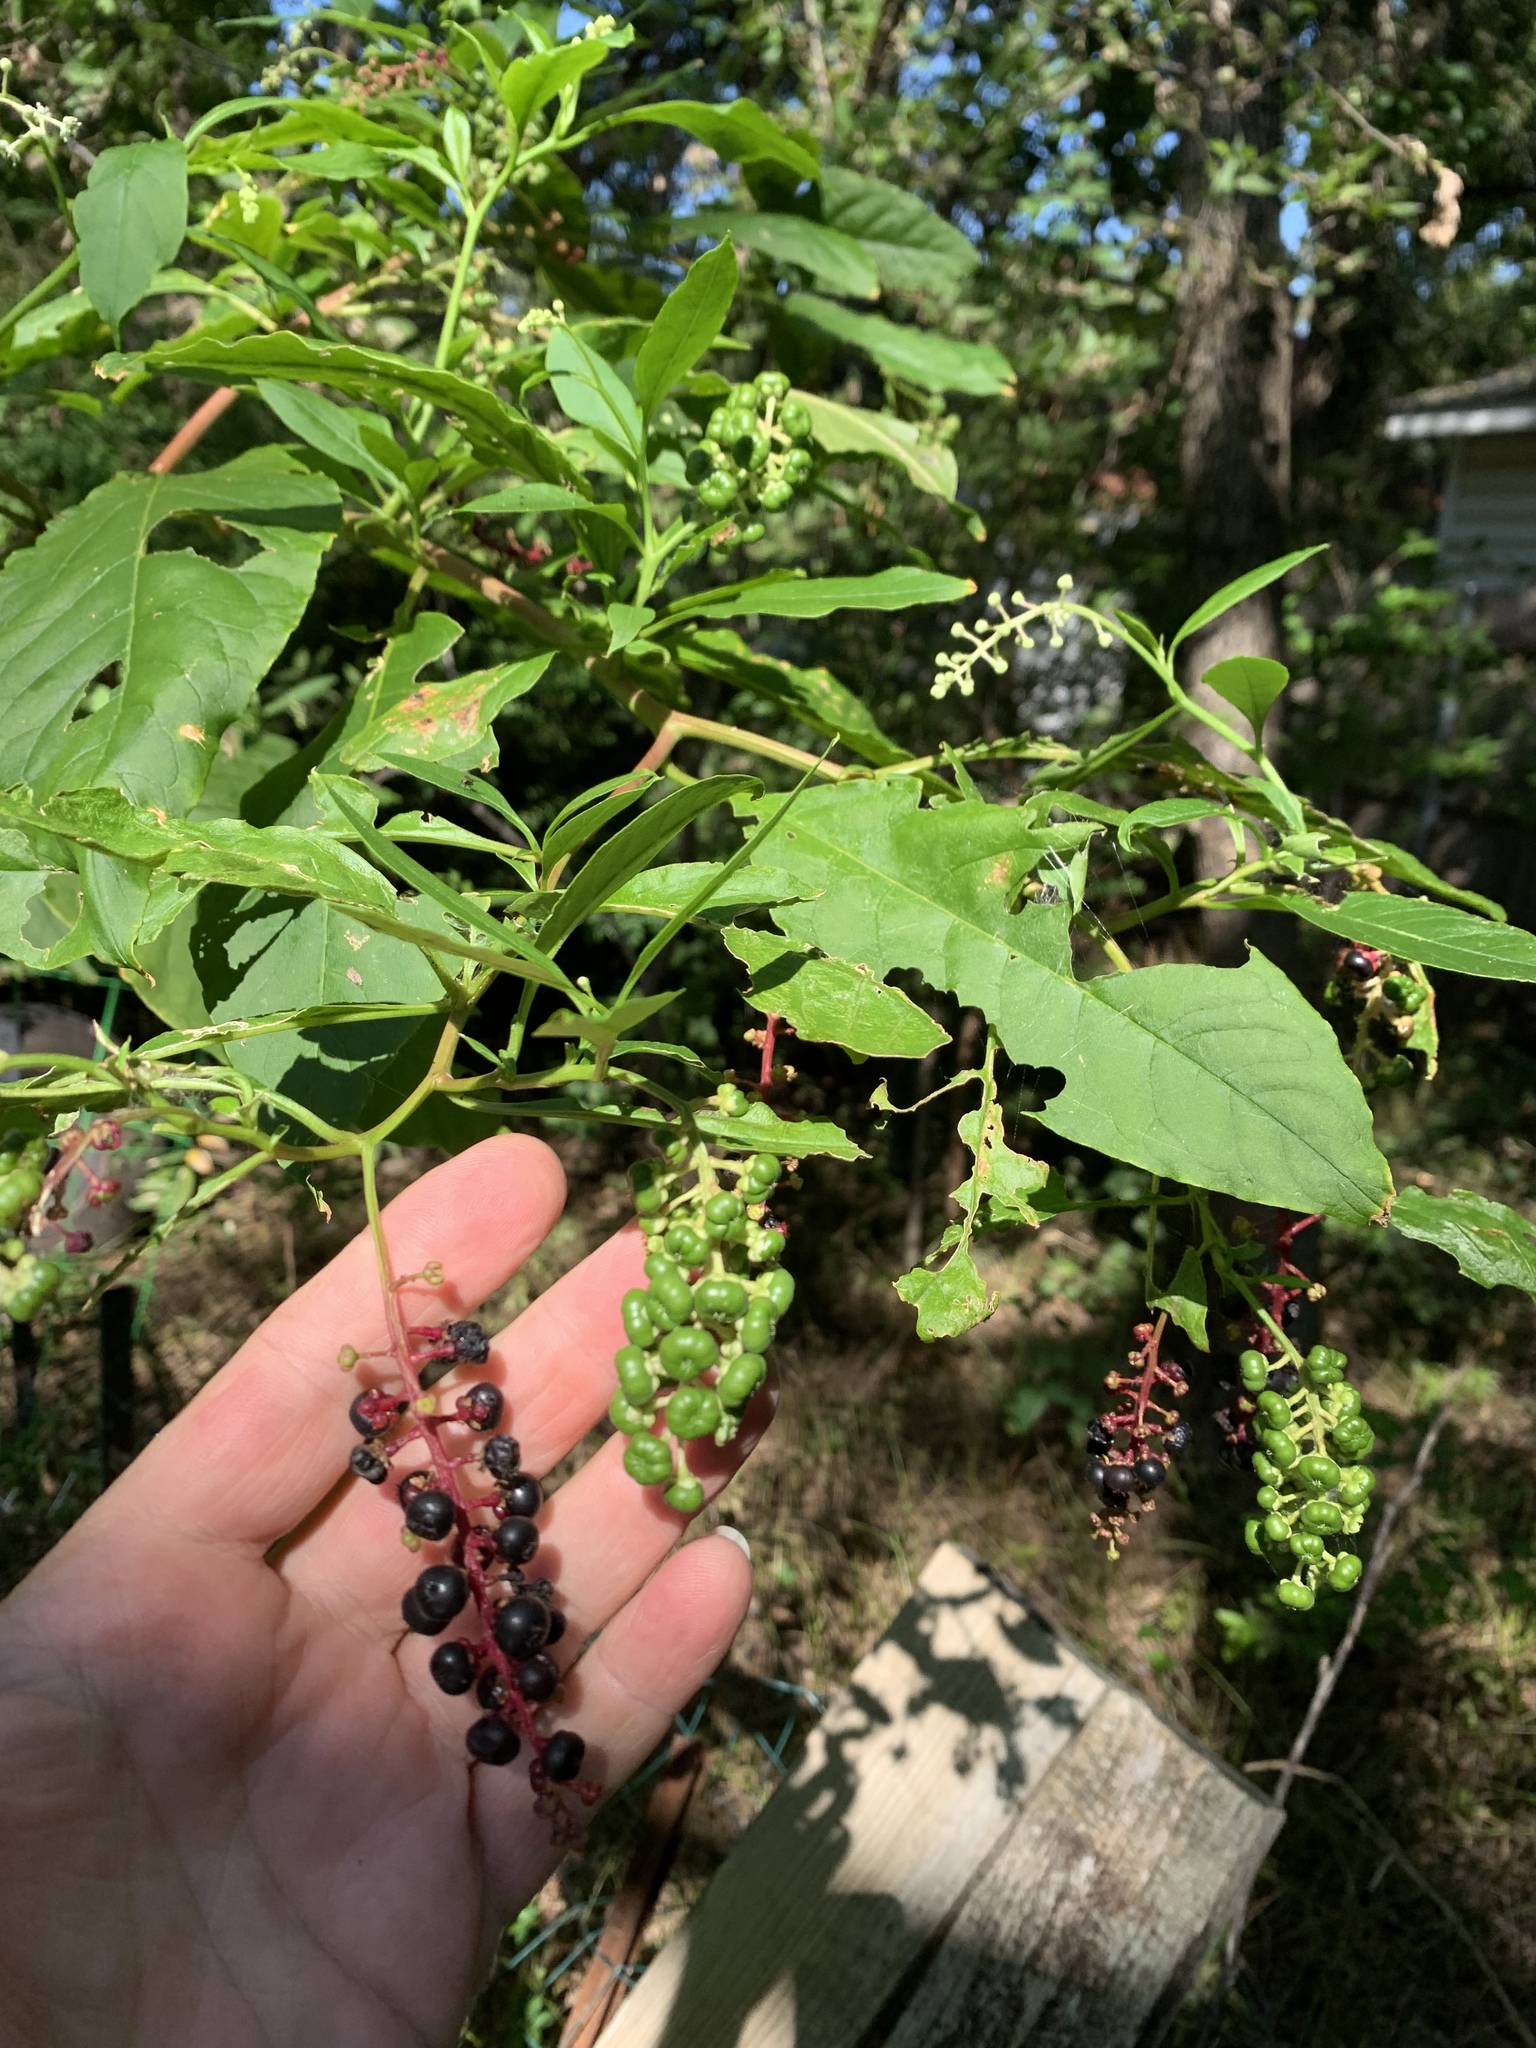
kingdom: Plantae
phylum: Tracheophyta
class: Magnoliopsida
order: Caryophyllales
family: Phytolaccaceae
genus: Phytolacca
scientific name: Phytolacca americana
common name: American pokeweed
